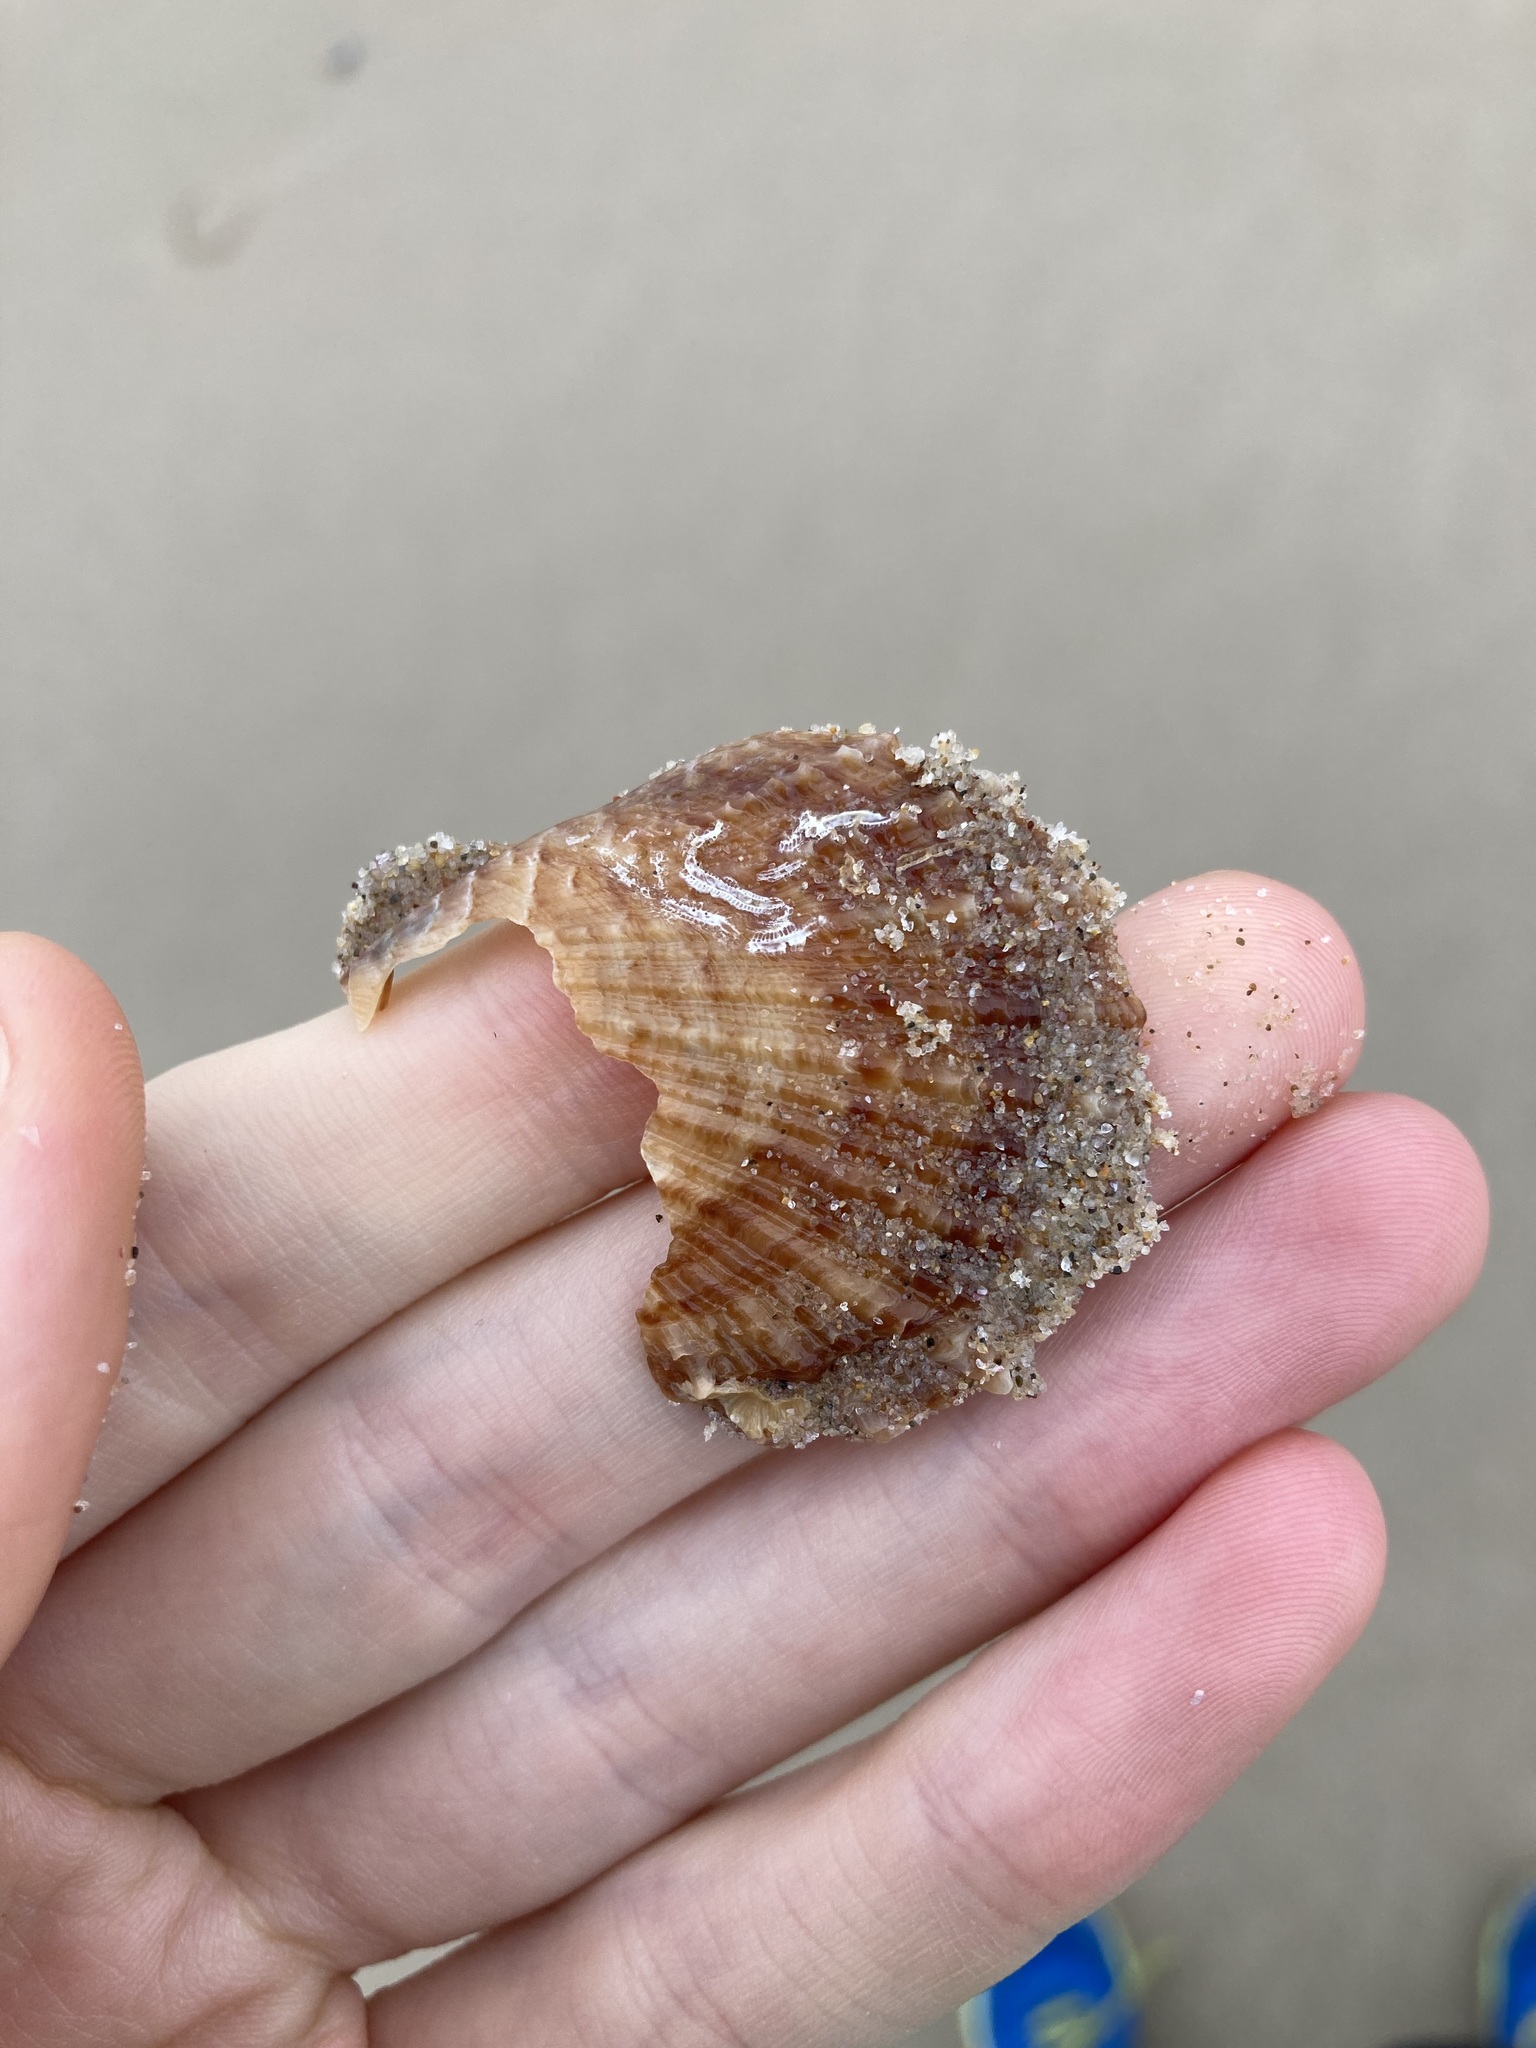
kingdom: Animalia
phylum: Mollusca
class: Bivalvia
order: Pectinida
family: Pectinidae
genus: Scaeochlamys
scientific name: Scaeochlamys livida
